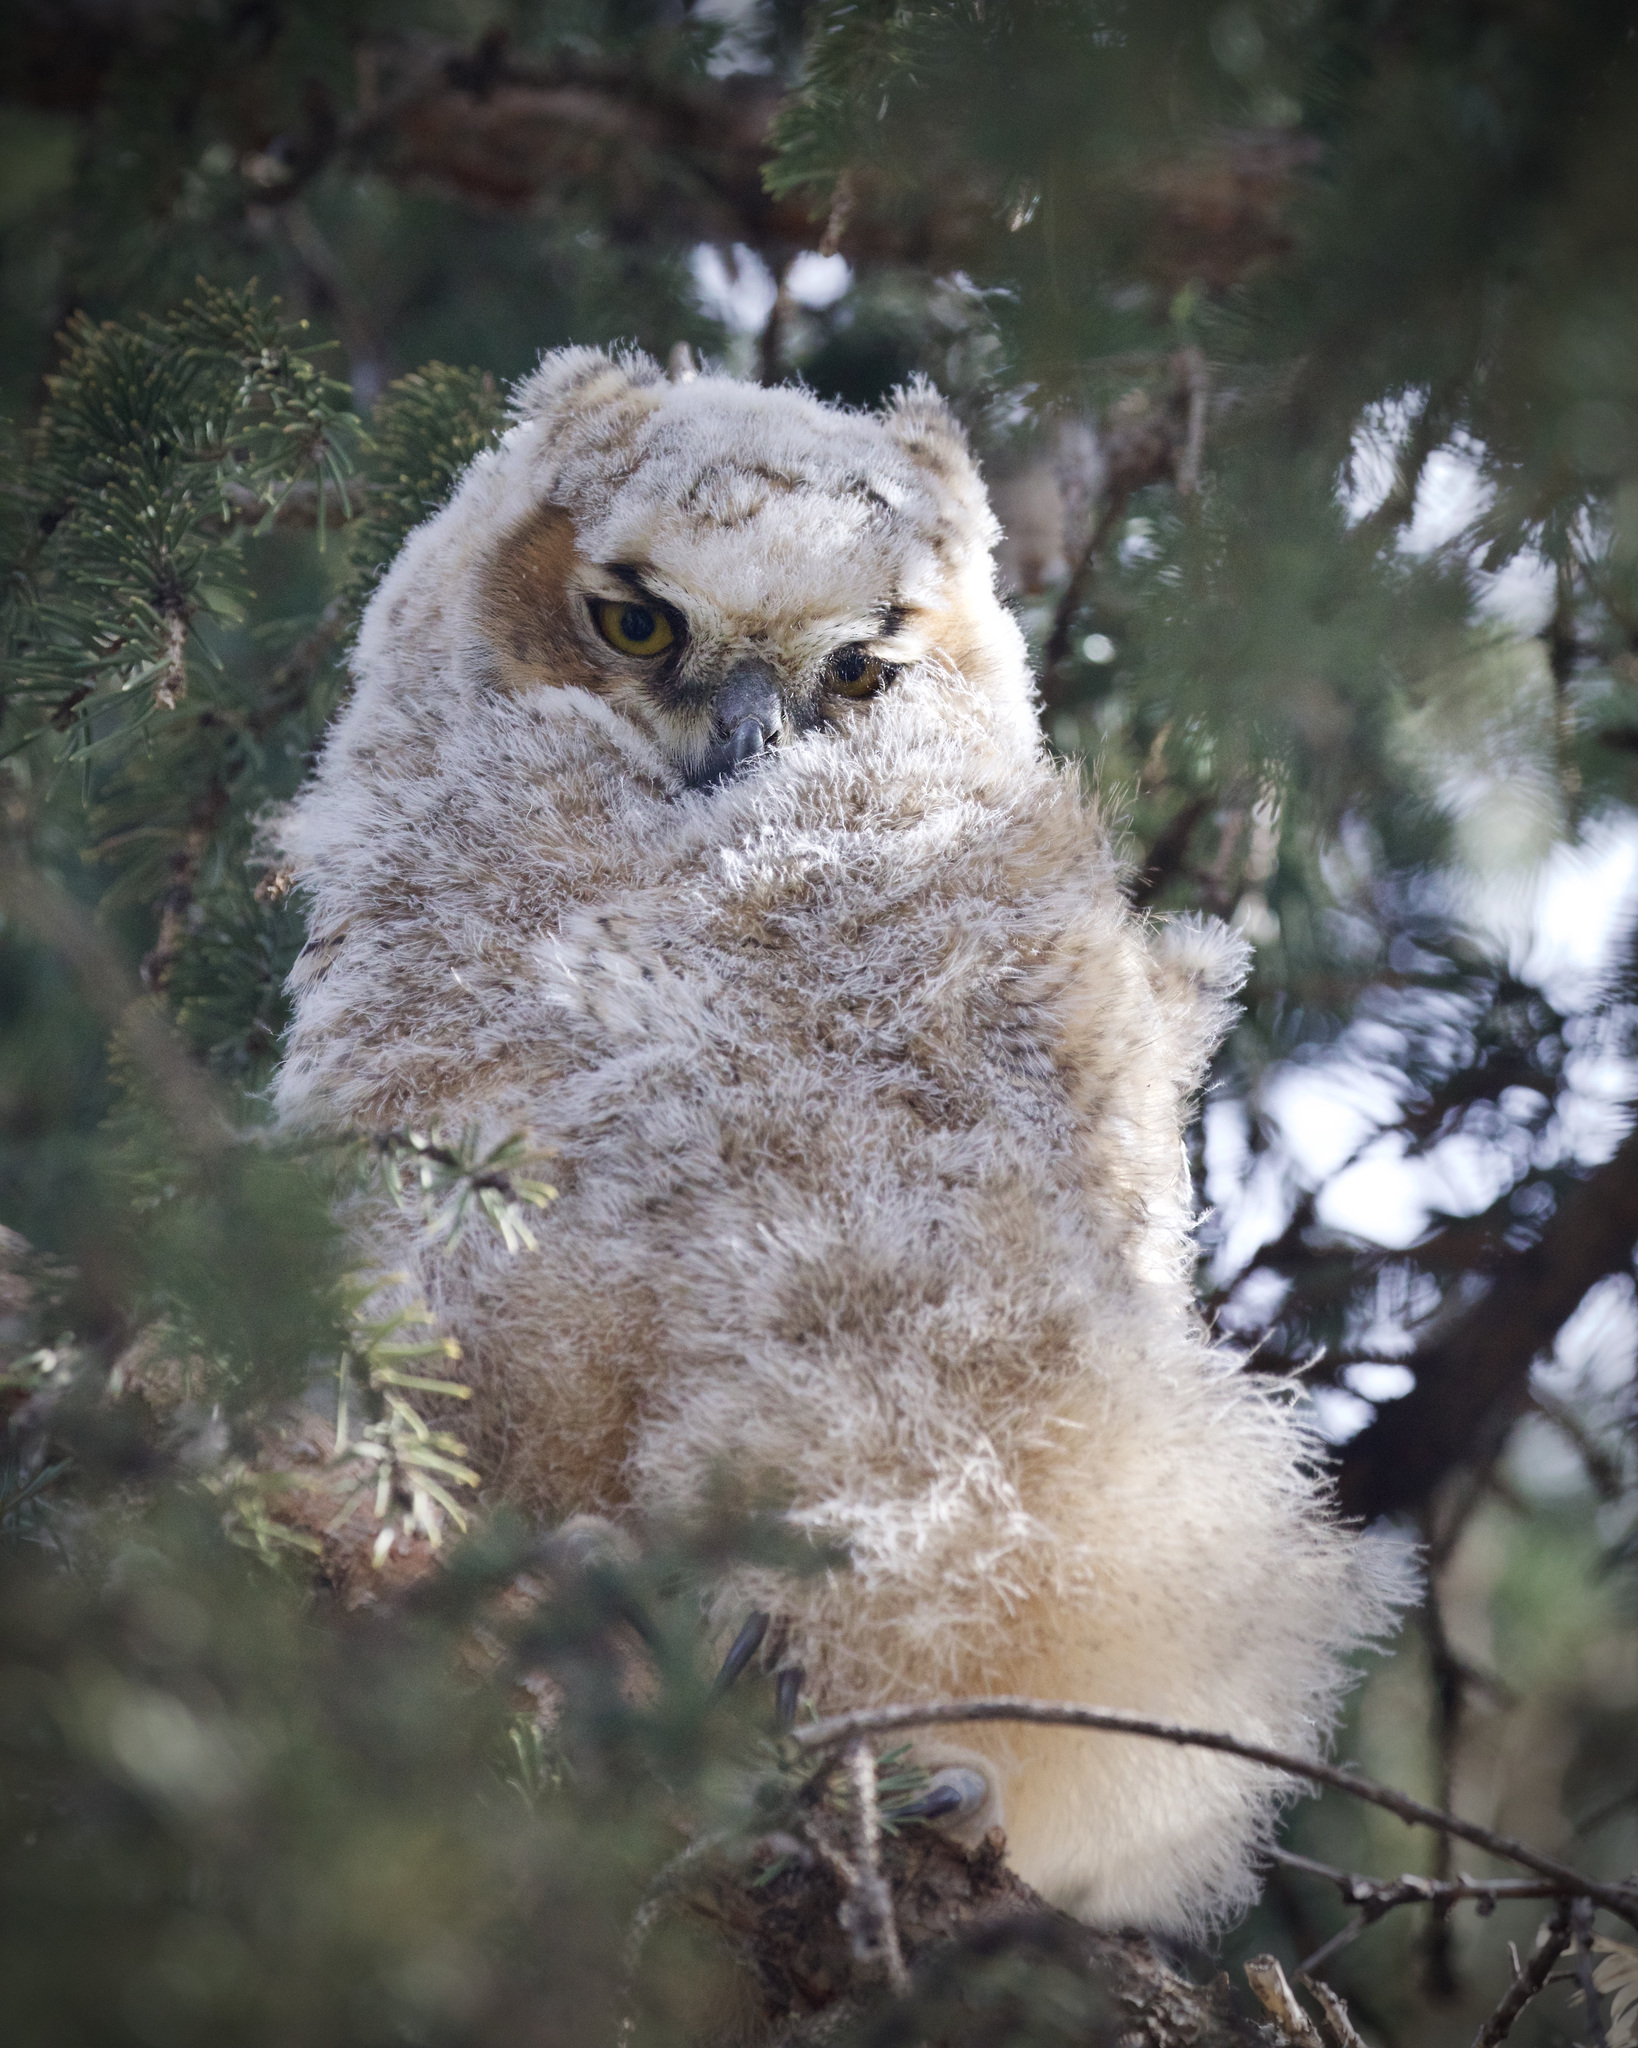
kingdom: Animalia
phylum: Chordata
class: Aves
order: Strigiformes
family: Strigidae
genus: Bubo
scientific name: Bubo virginianus
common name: Great horned owl
